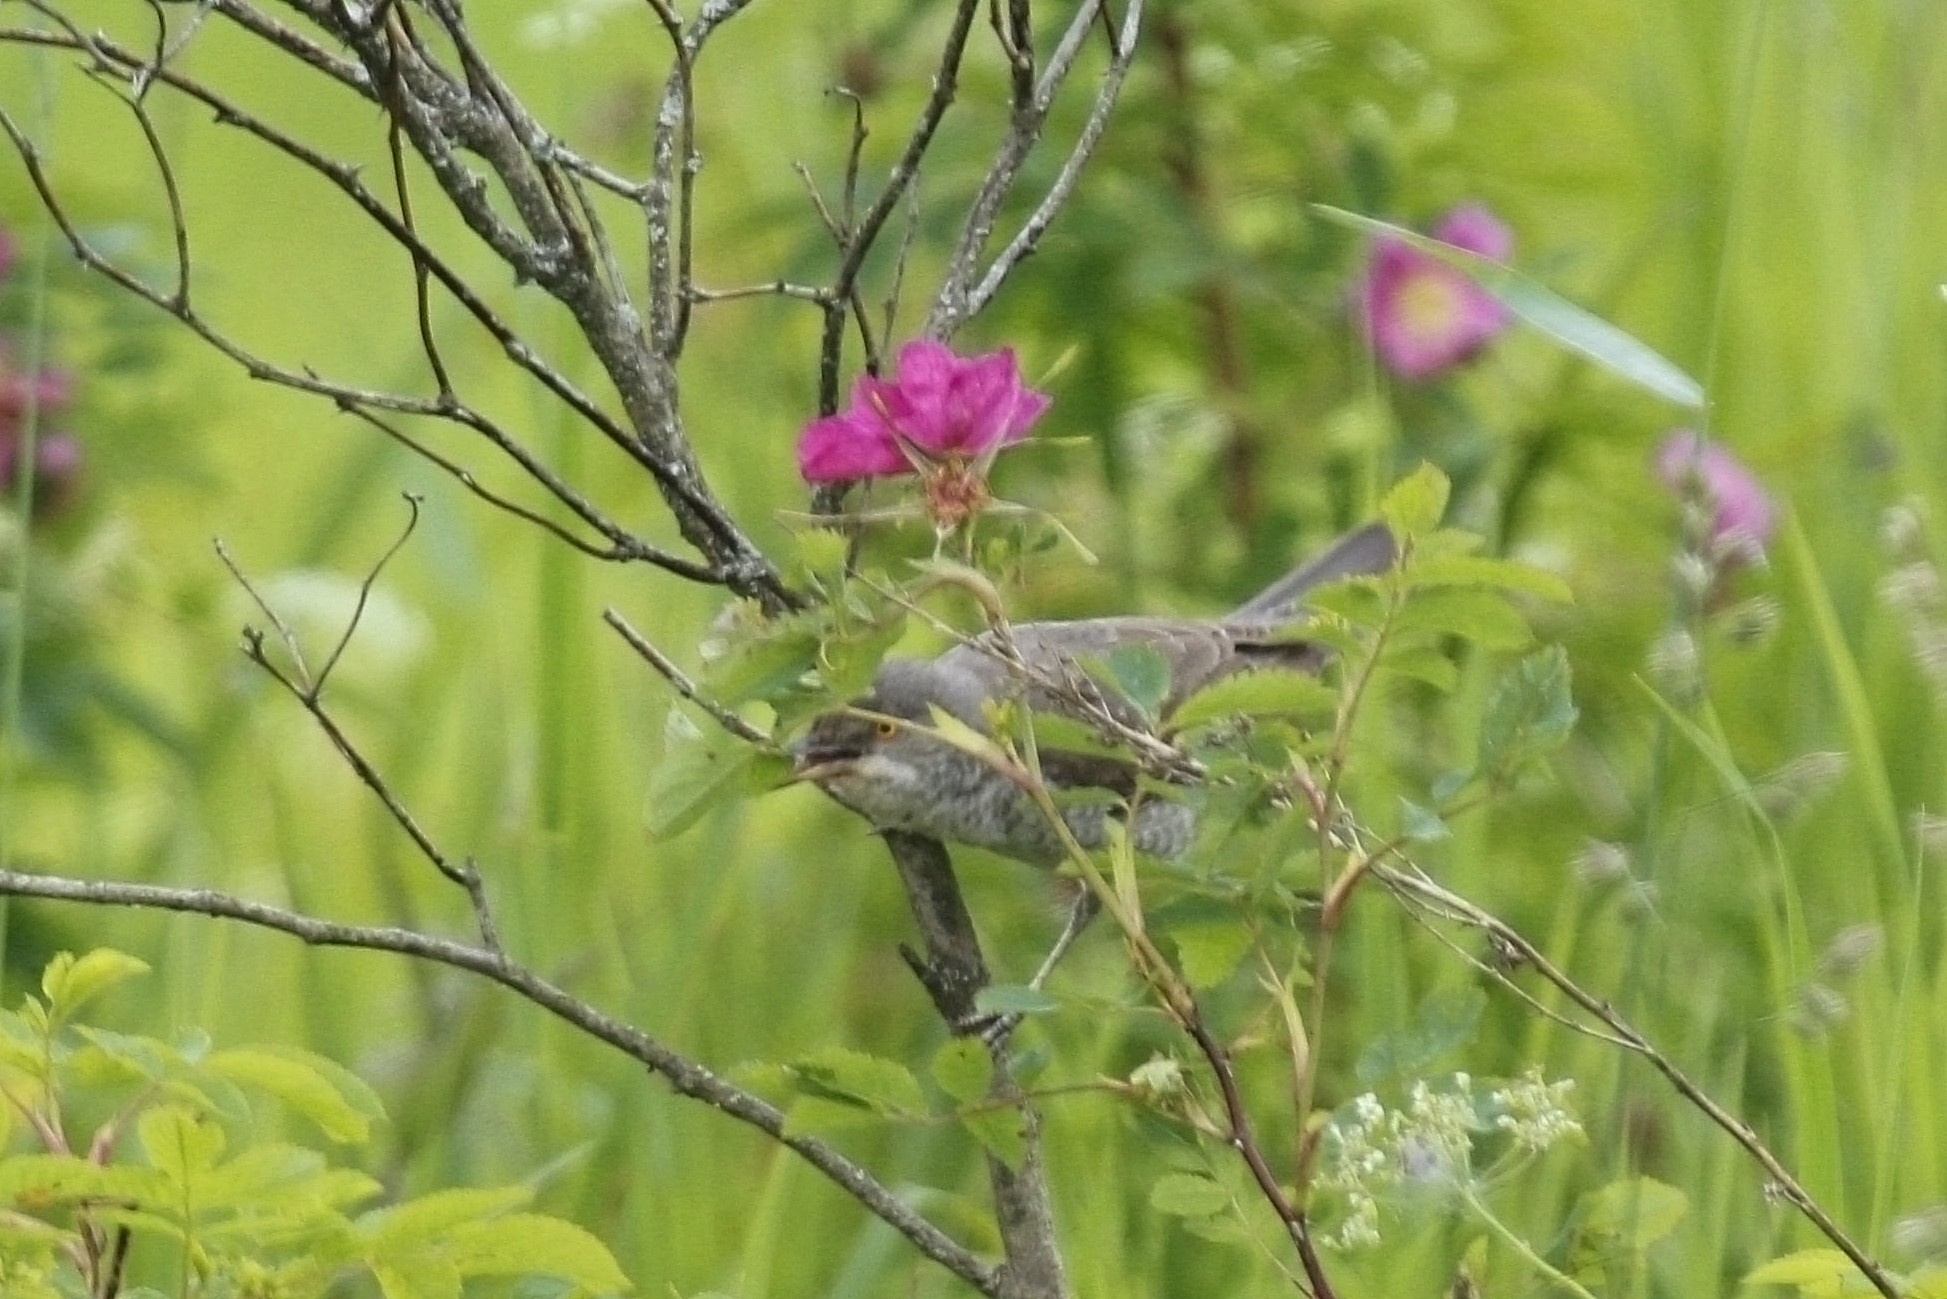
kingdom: Animalia
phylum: Chordata
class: Aves
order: Passeriformes
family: Sylviidae
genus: Sylvia
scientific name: Sylvia nisoria
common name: Barred warbler
